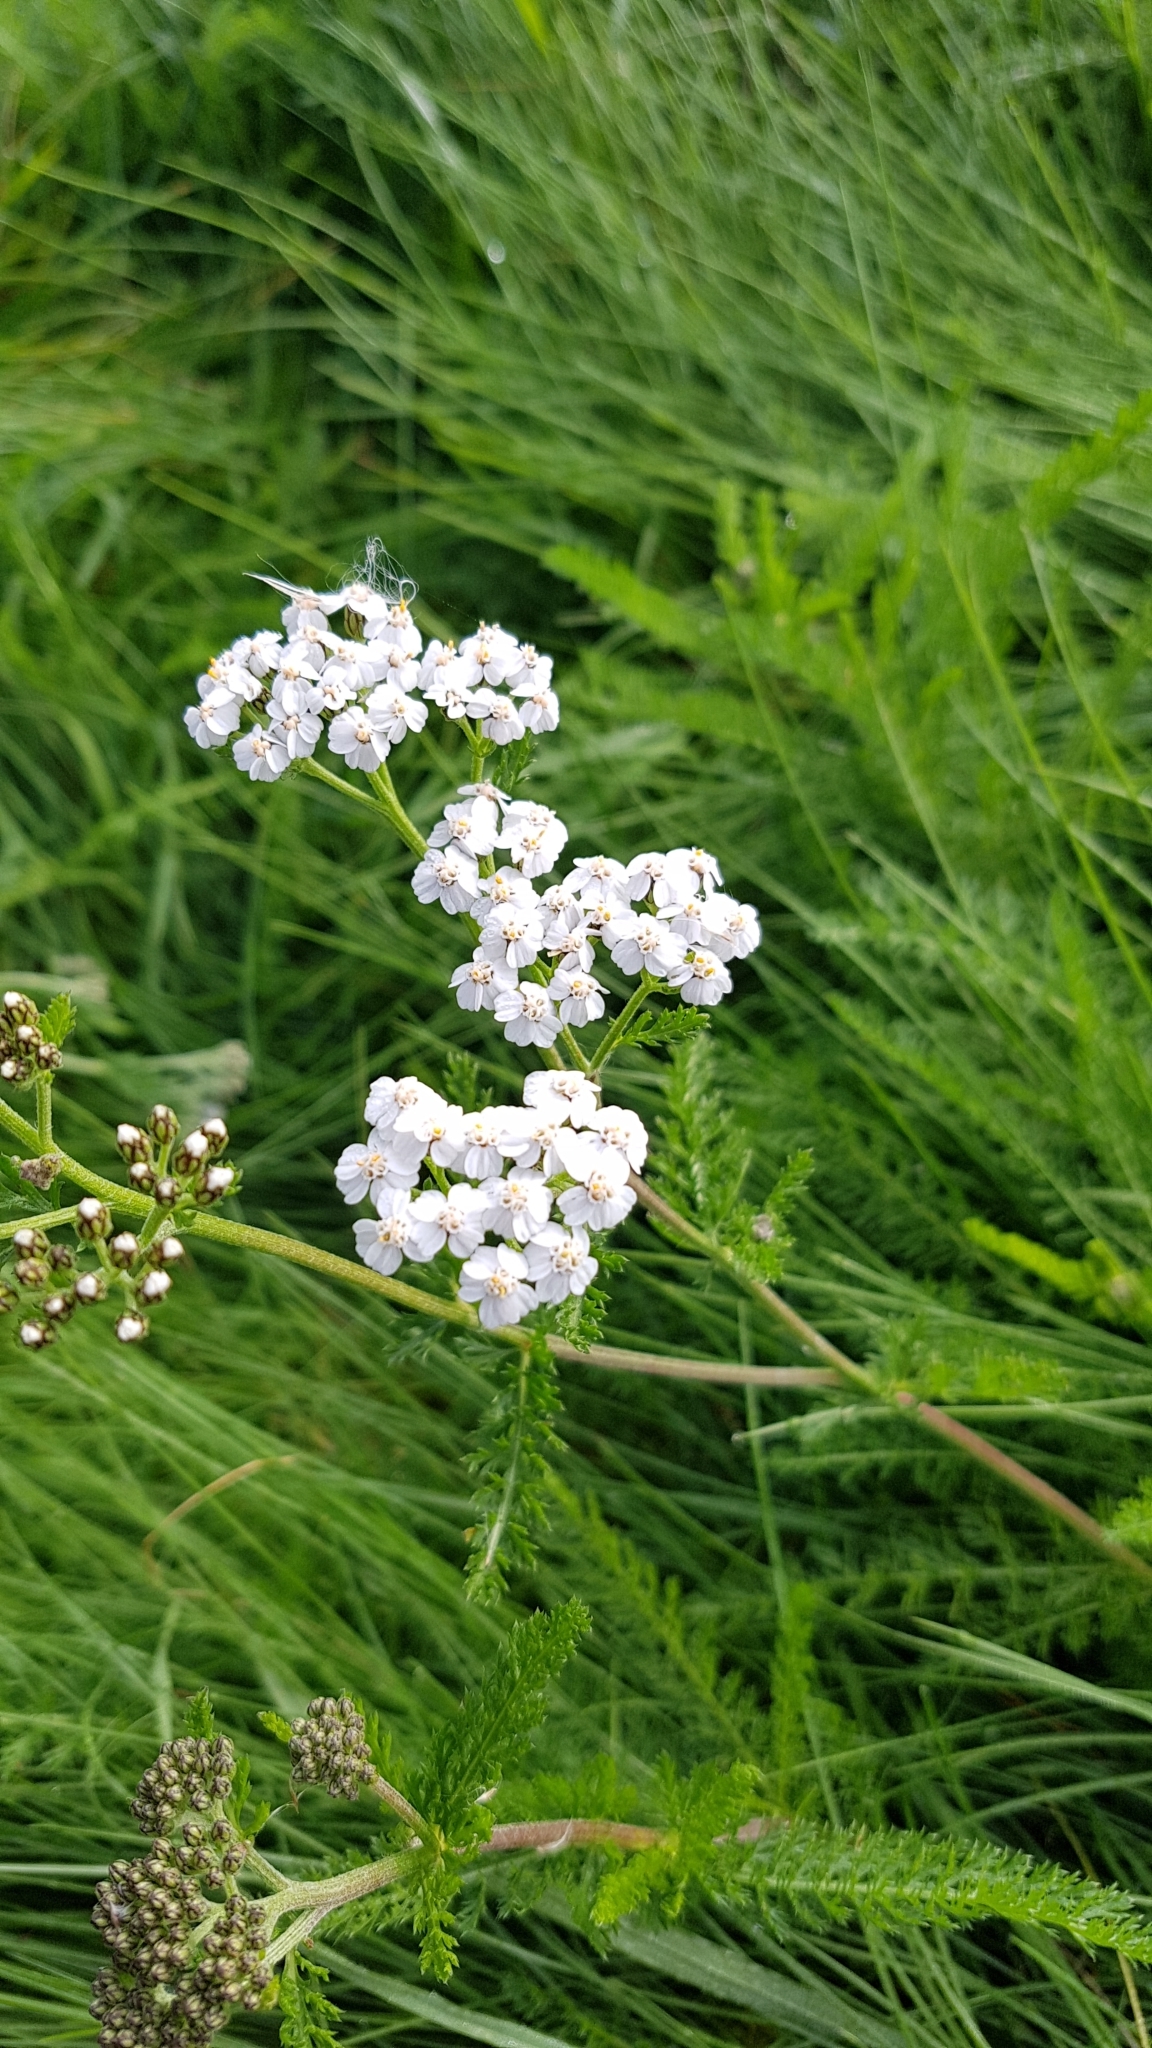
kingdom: Plantae
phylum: Tracheophyta
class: Magnoliopsida
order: Asterales
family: Asteraceae
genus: Achillea
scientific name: Achillea millefolium
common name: Yarrow
